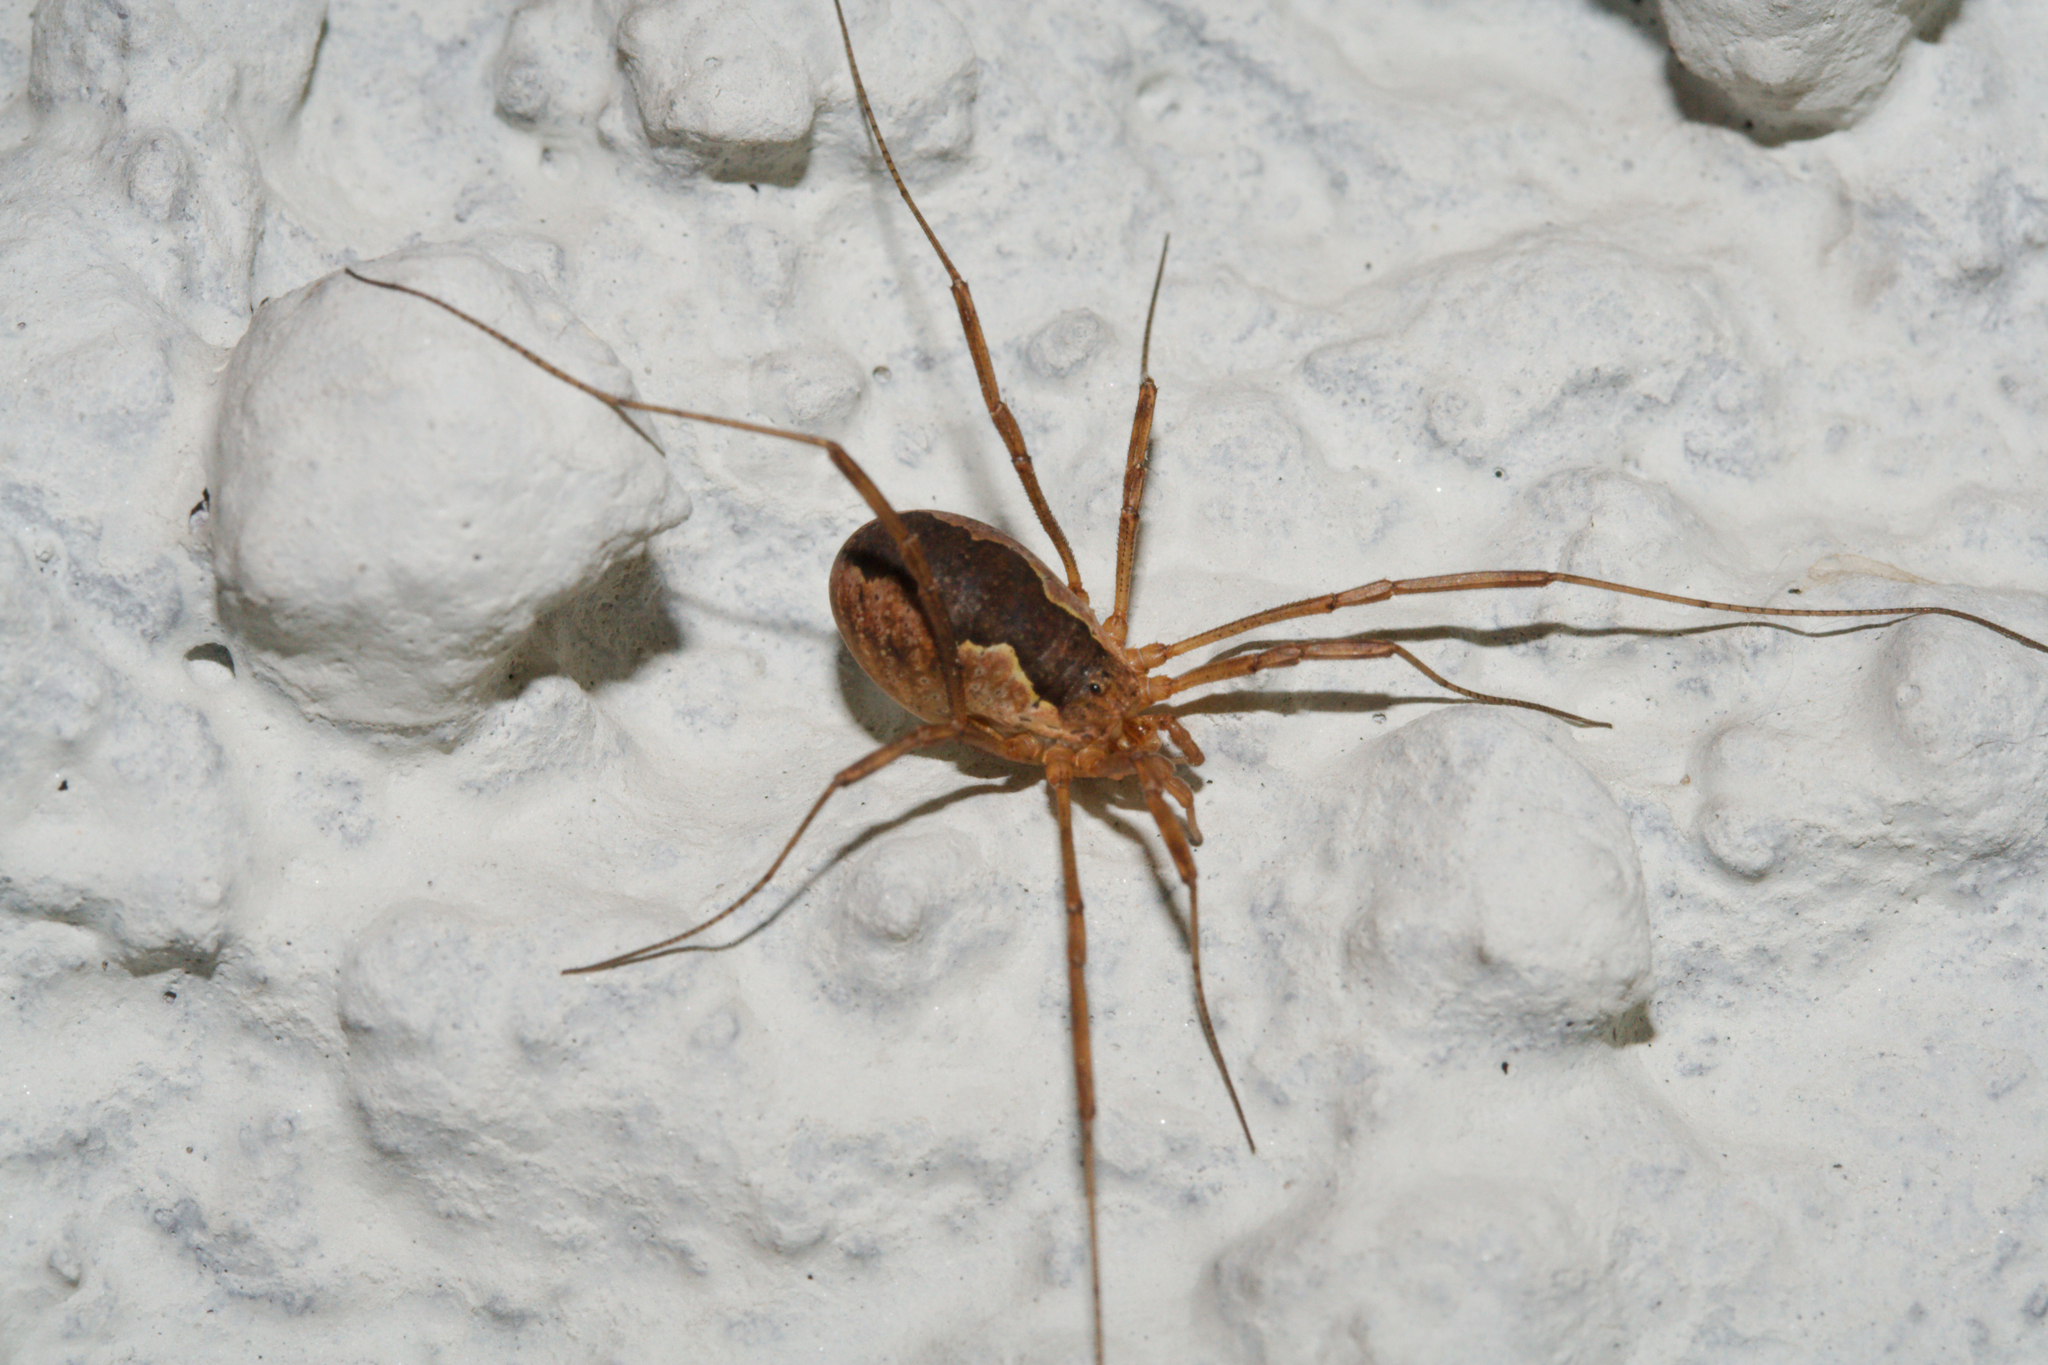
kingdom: Animalia
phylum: Arthropoda
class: Arachnida
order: Opiliones
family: Phalangiidae
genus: Mitopus
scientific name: Mitopus morio
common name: Saddleback harvestman
